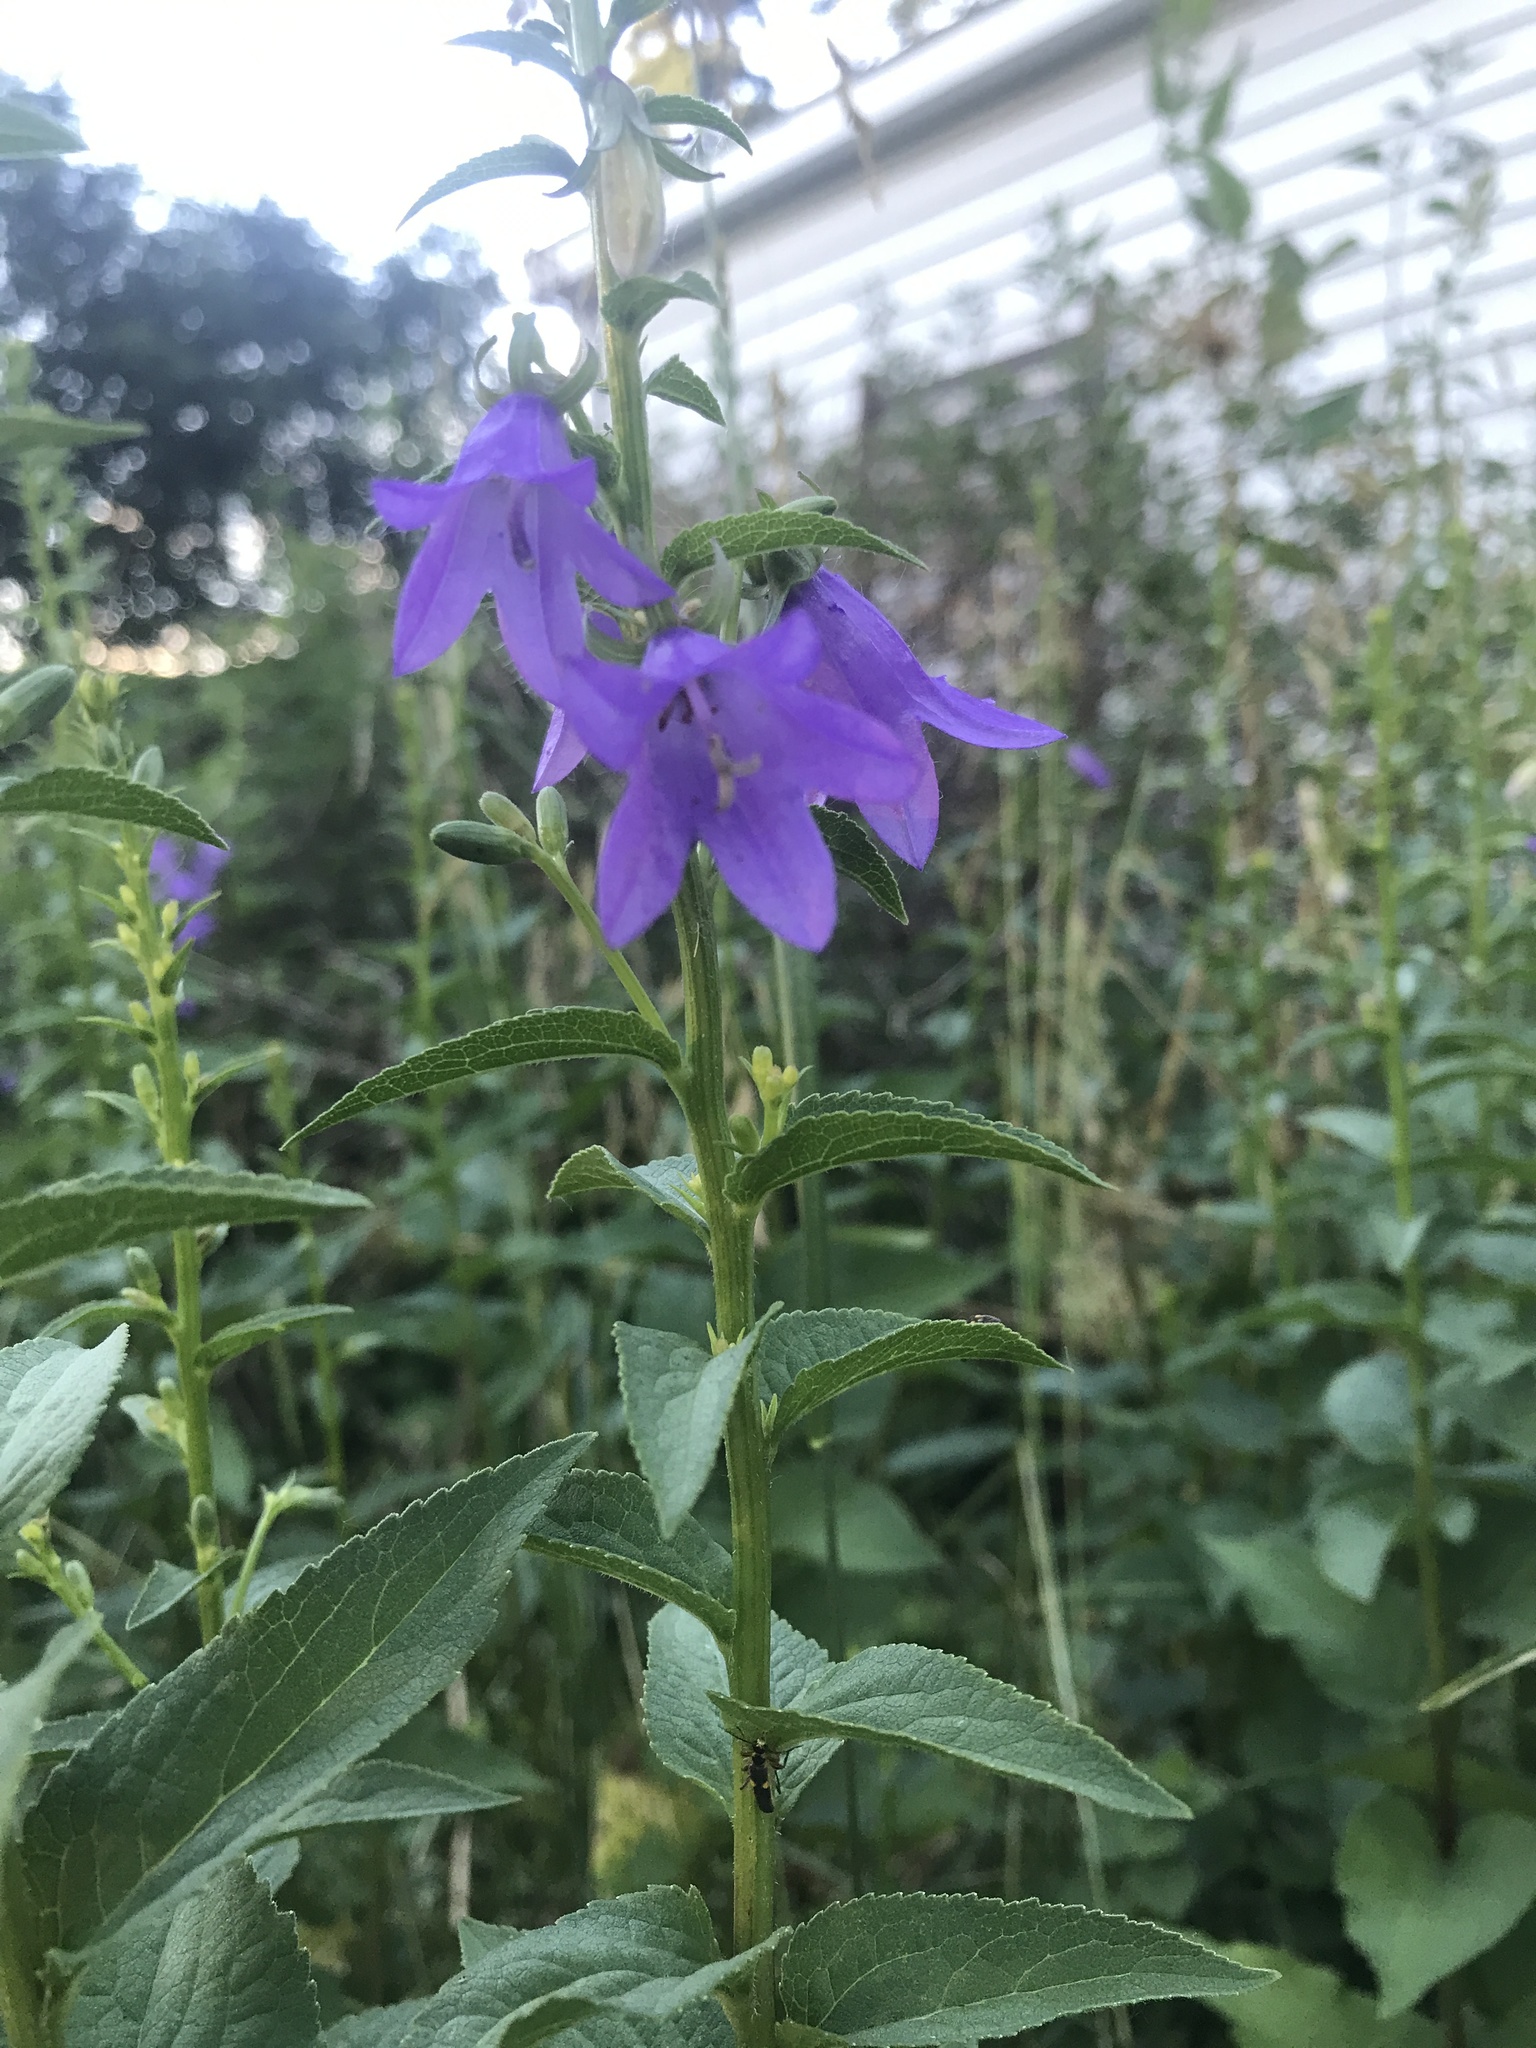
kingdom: Plantae
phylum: Tracheophyta
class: Magnoliopsida
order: Asterales
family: Campanulaceae
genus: Campanula
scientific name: Campanula rapunculoides
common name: Creeping bellflower
